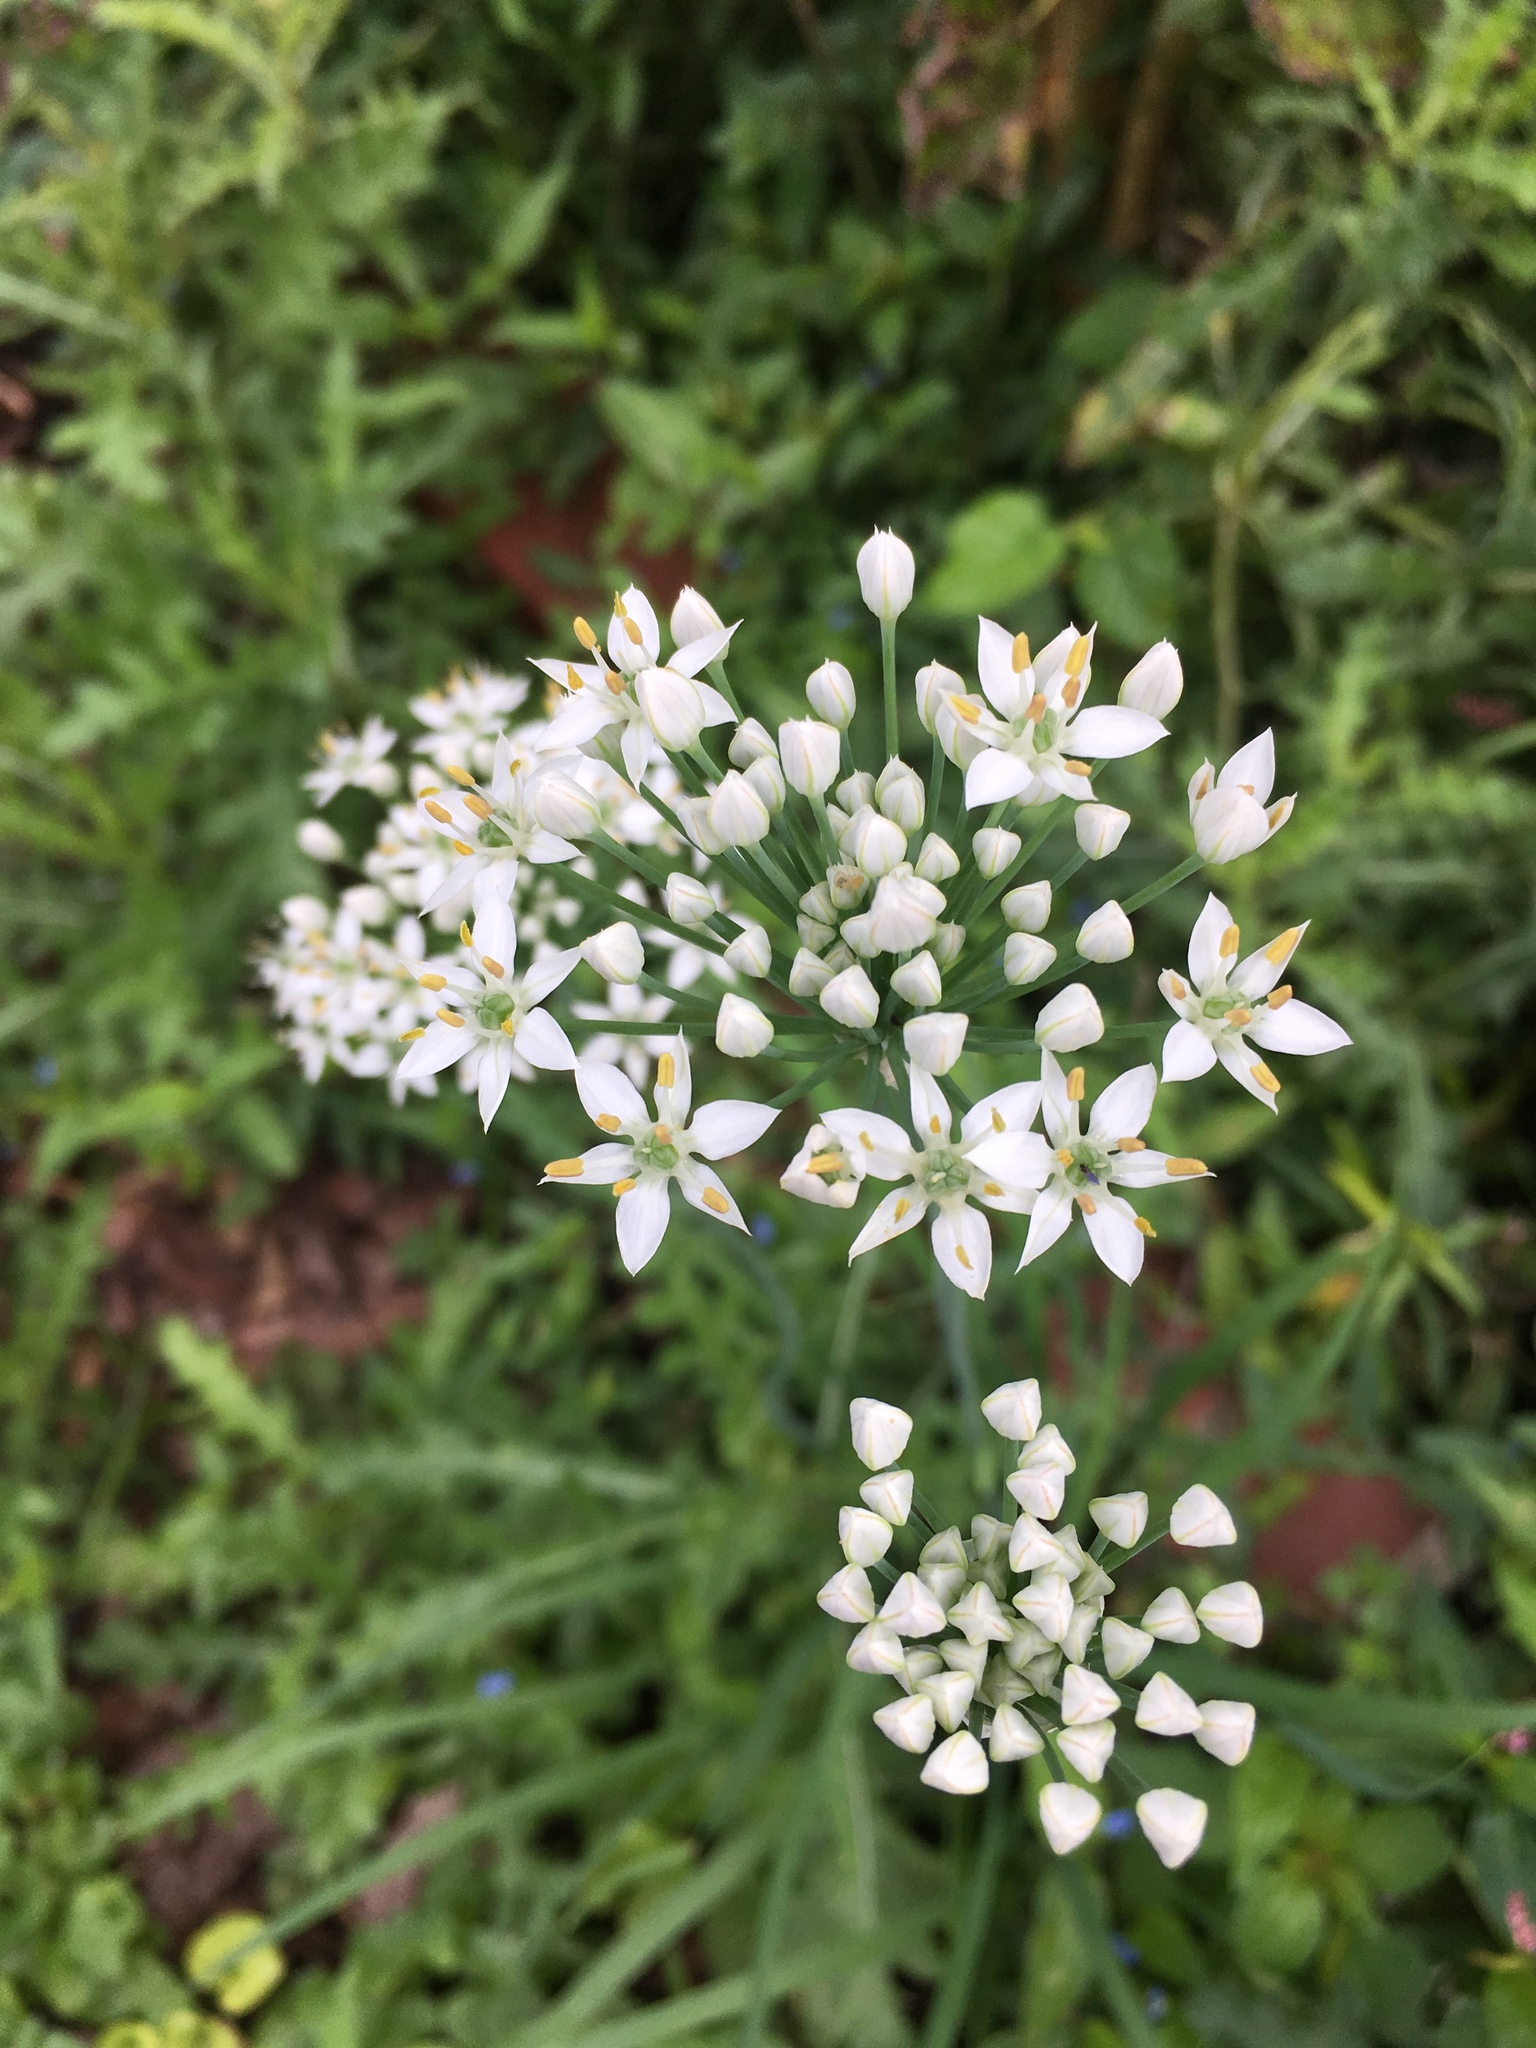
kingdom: Plantae
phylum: Tracheophyta
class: Liliopsida
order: Asparagales
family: Amaryllidaceae
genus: Allium
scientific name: Allium tuberosum
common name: Chinese chives
